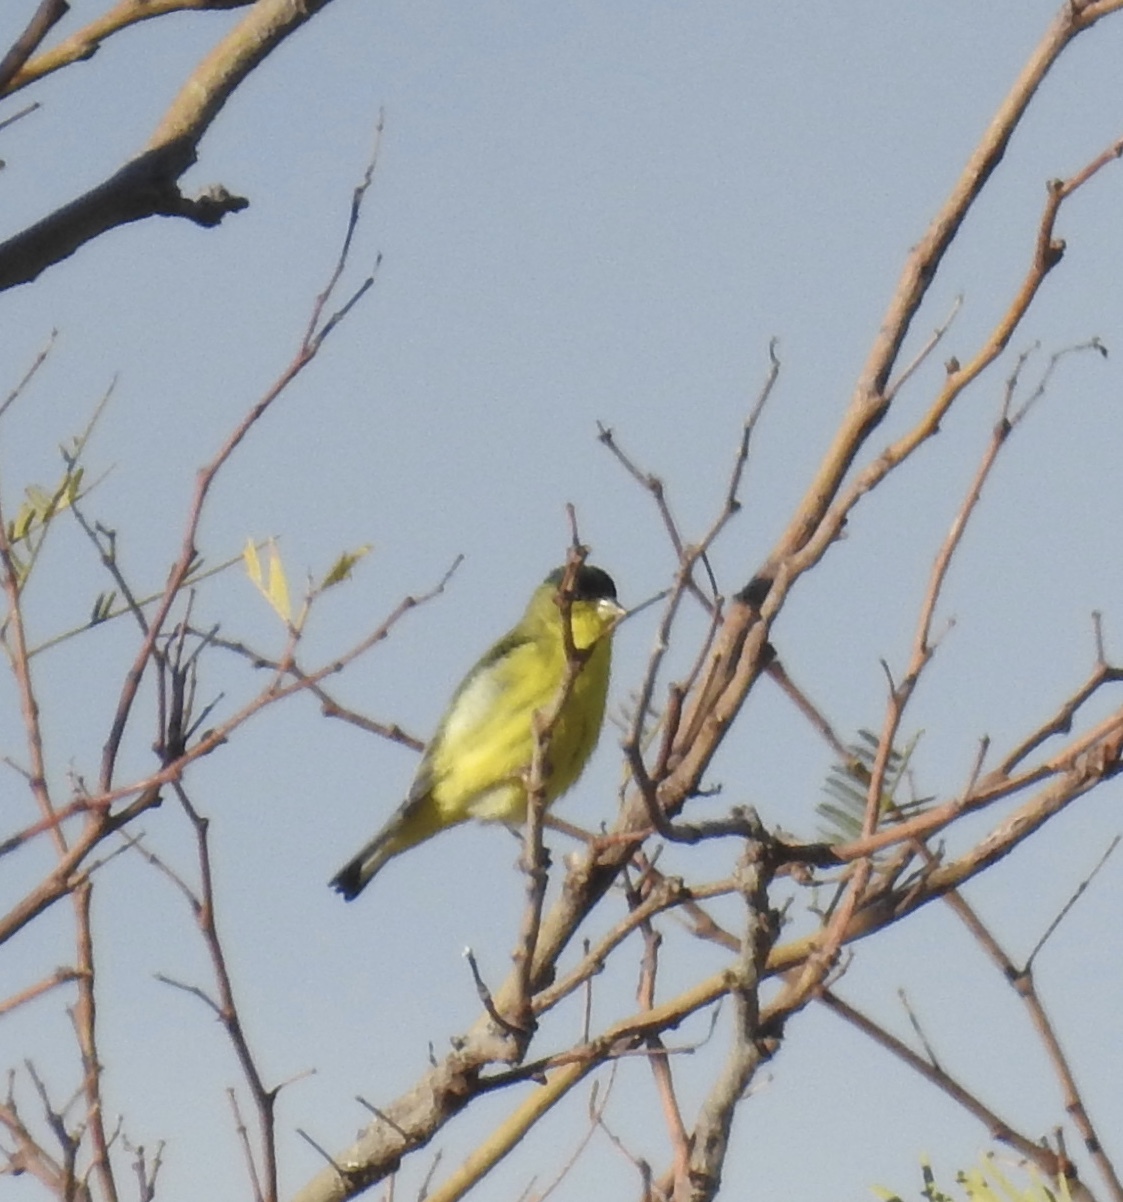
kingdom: Animalia
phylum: Chordata
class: Aves
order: Passeriformes
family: Fringillidae
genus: Spinus
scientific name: Spinus psaltria
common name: Lesser goldfinch
